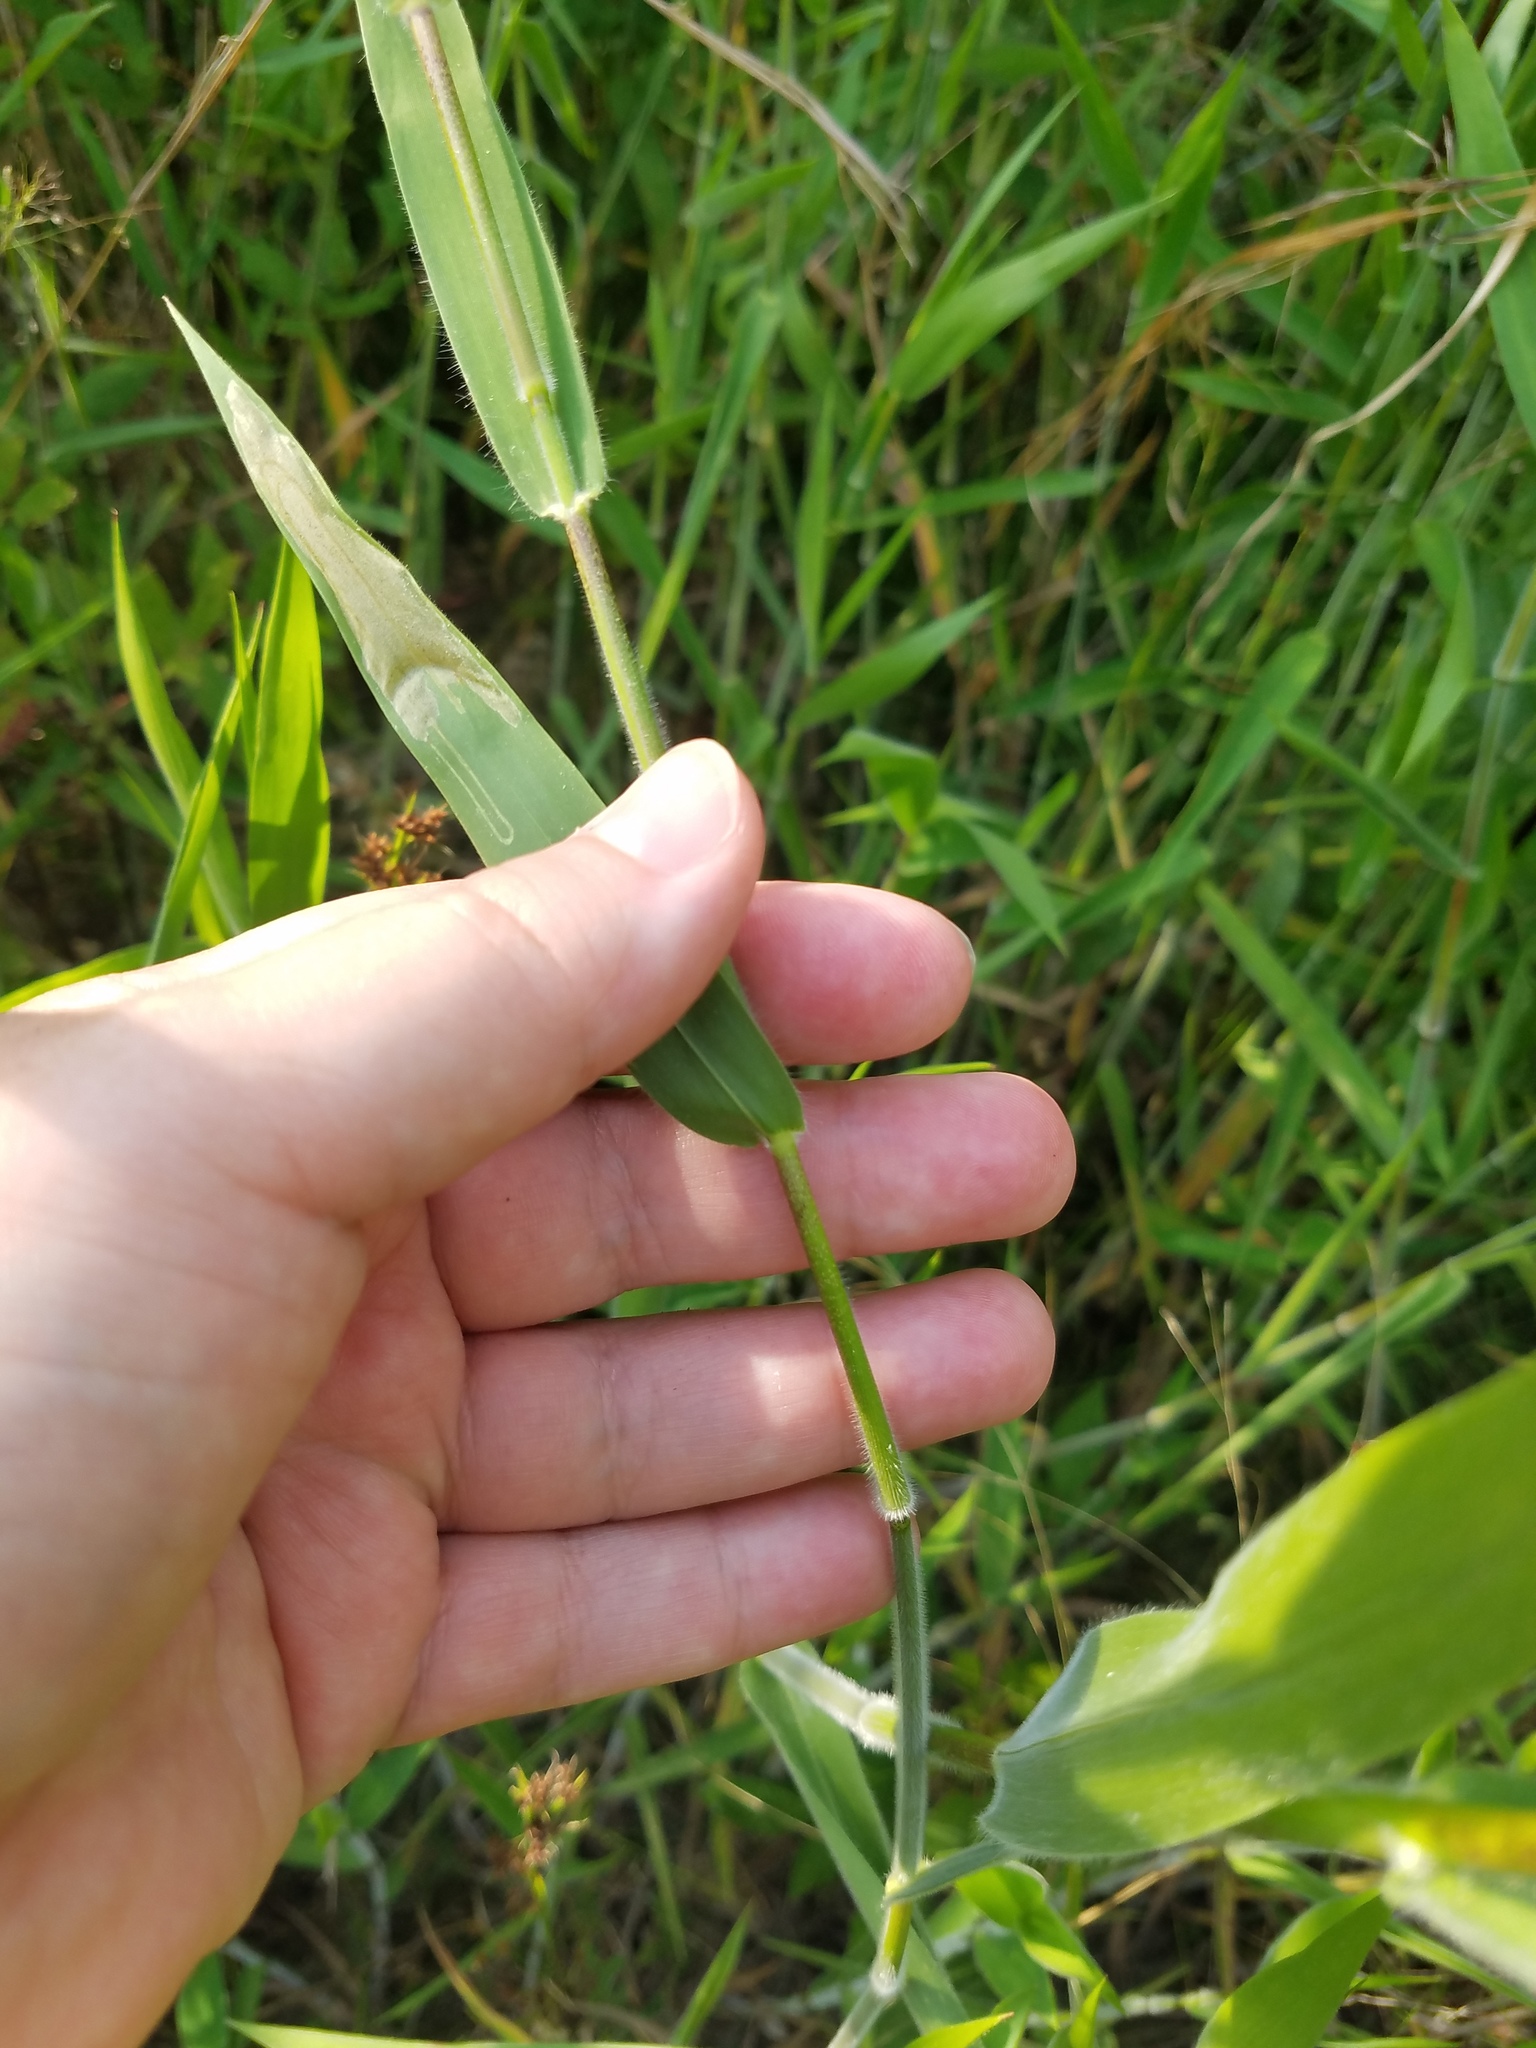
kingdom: Plantae
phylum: Tracheophyta
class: Liliopsida
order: Poales
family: Poaceae
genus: Dichanthelium
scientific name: Dichanthelium scoparium
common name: Velvety panic grass
